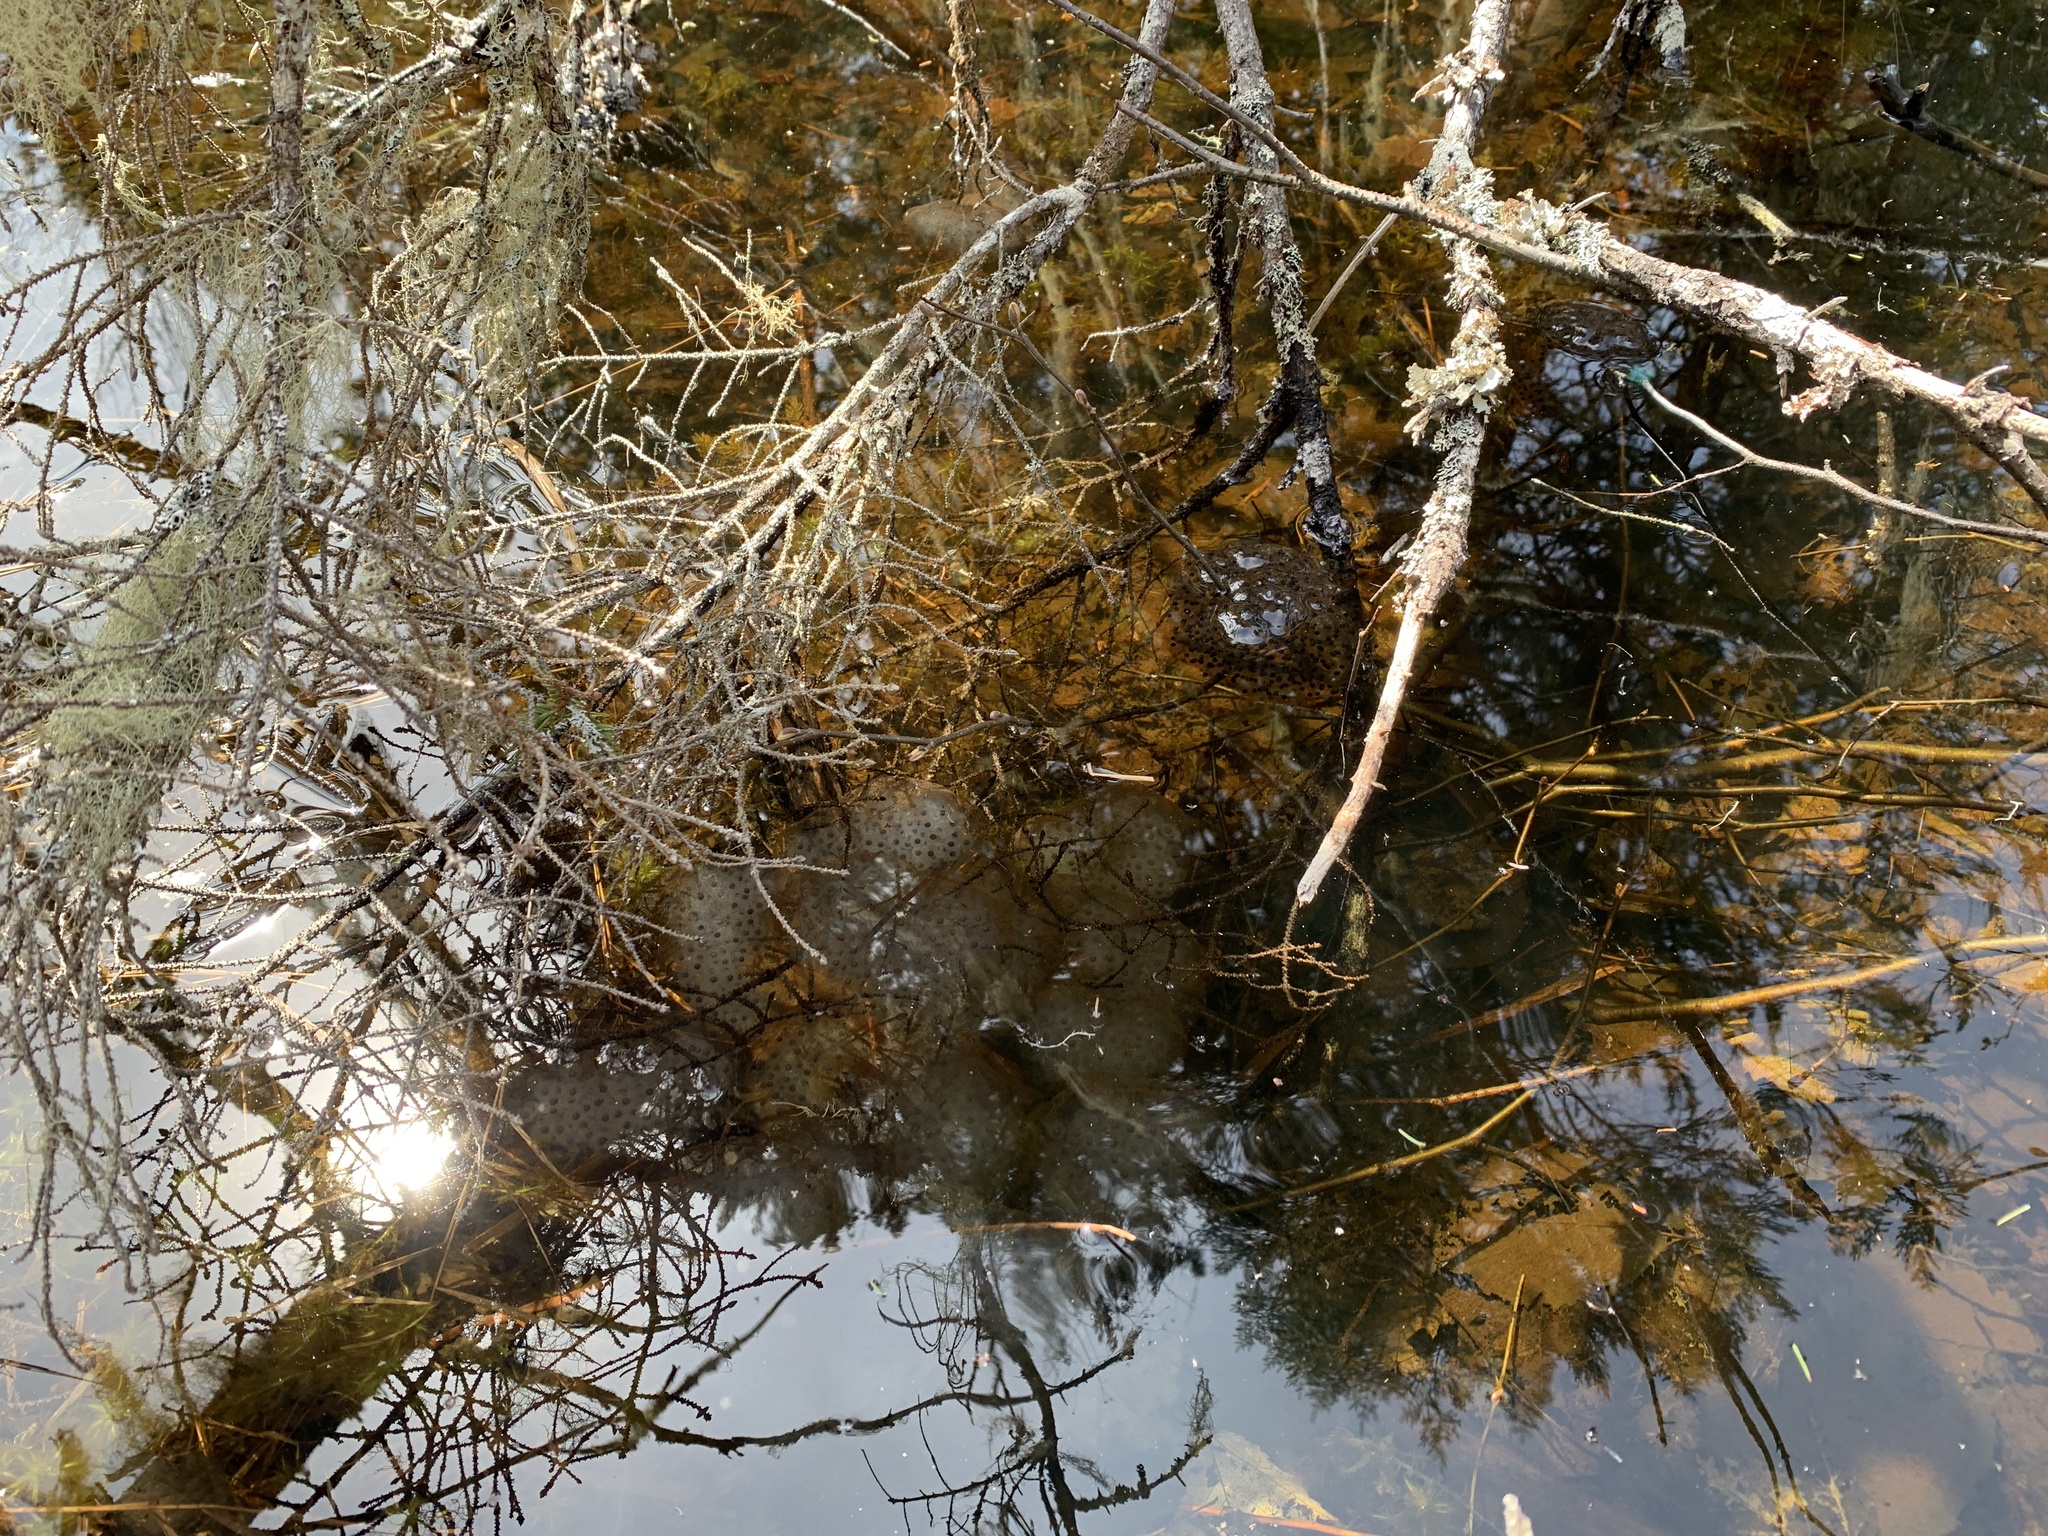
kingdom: Animalia
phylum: Chordata
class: Amphibia
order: Caudata
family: Ambystomatidae
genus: Ambystoma
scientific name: Ambystoma maculatum
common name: Spotted salamander
